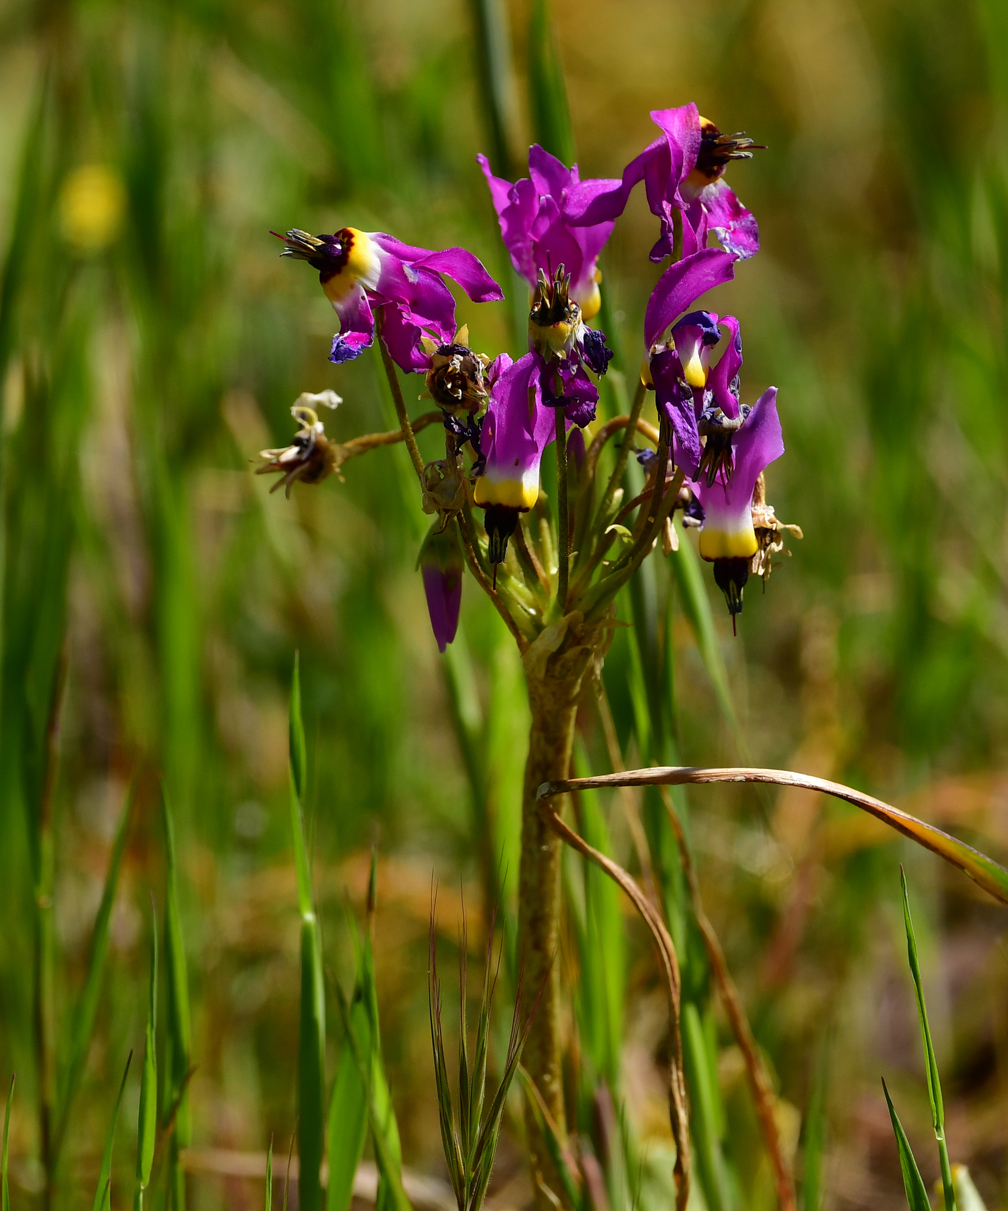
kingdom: Plantae
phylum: Tracheophyta
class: Magnoliopsida
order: Ericales
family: Primulaceae
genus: Dodecatheon
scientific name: Dodecatheon clevelandii
